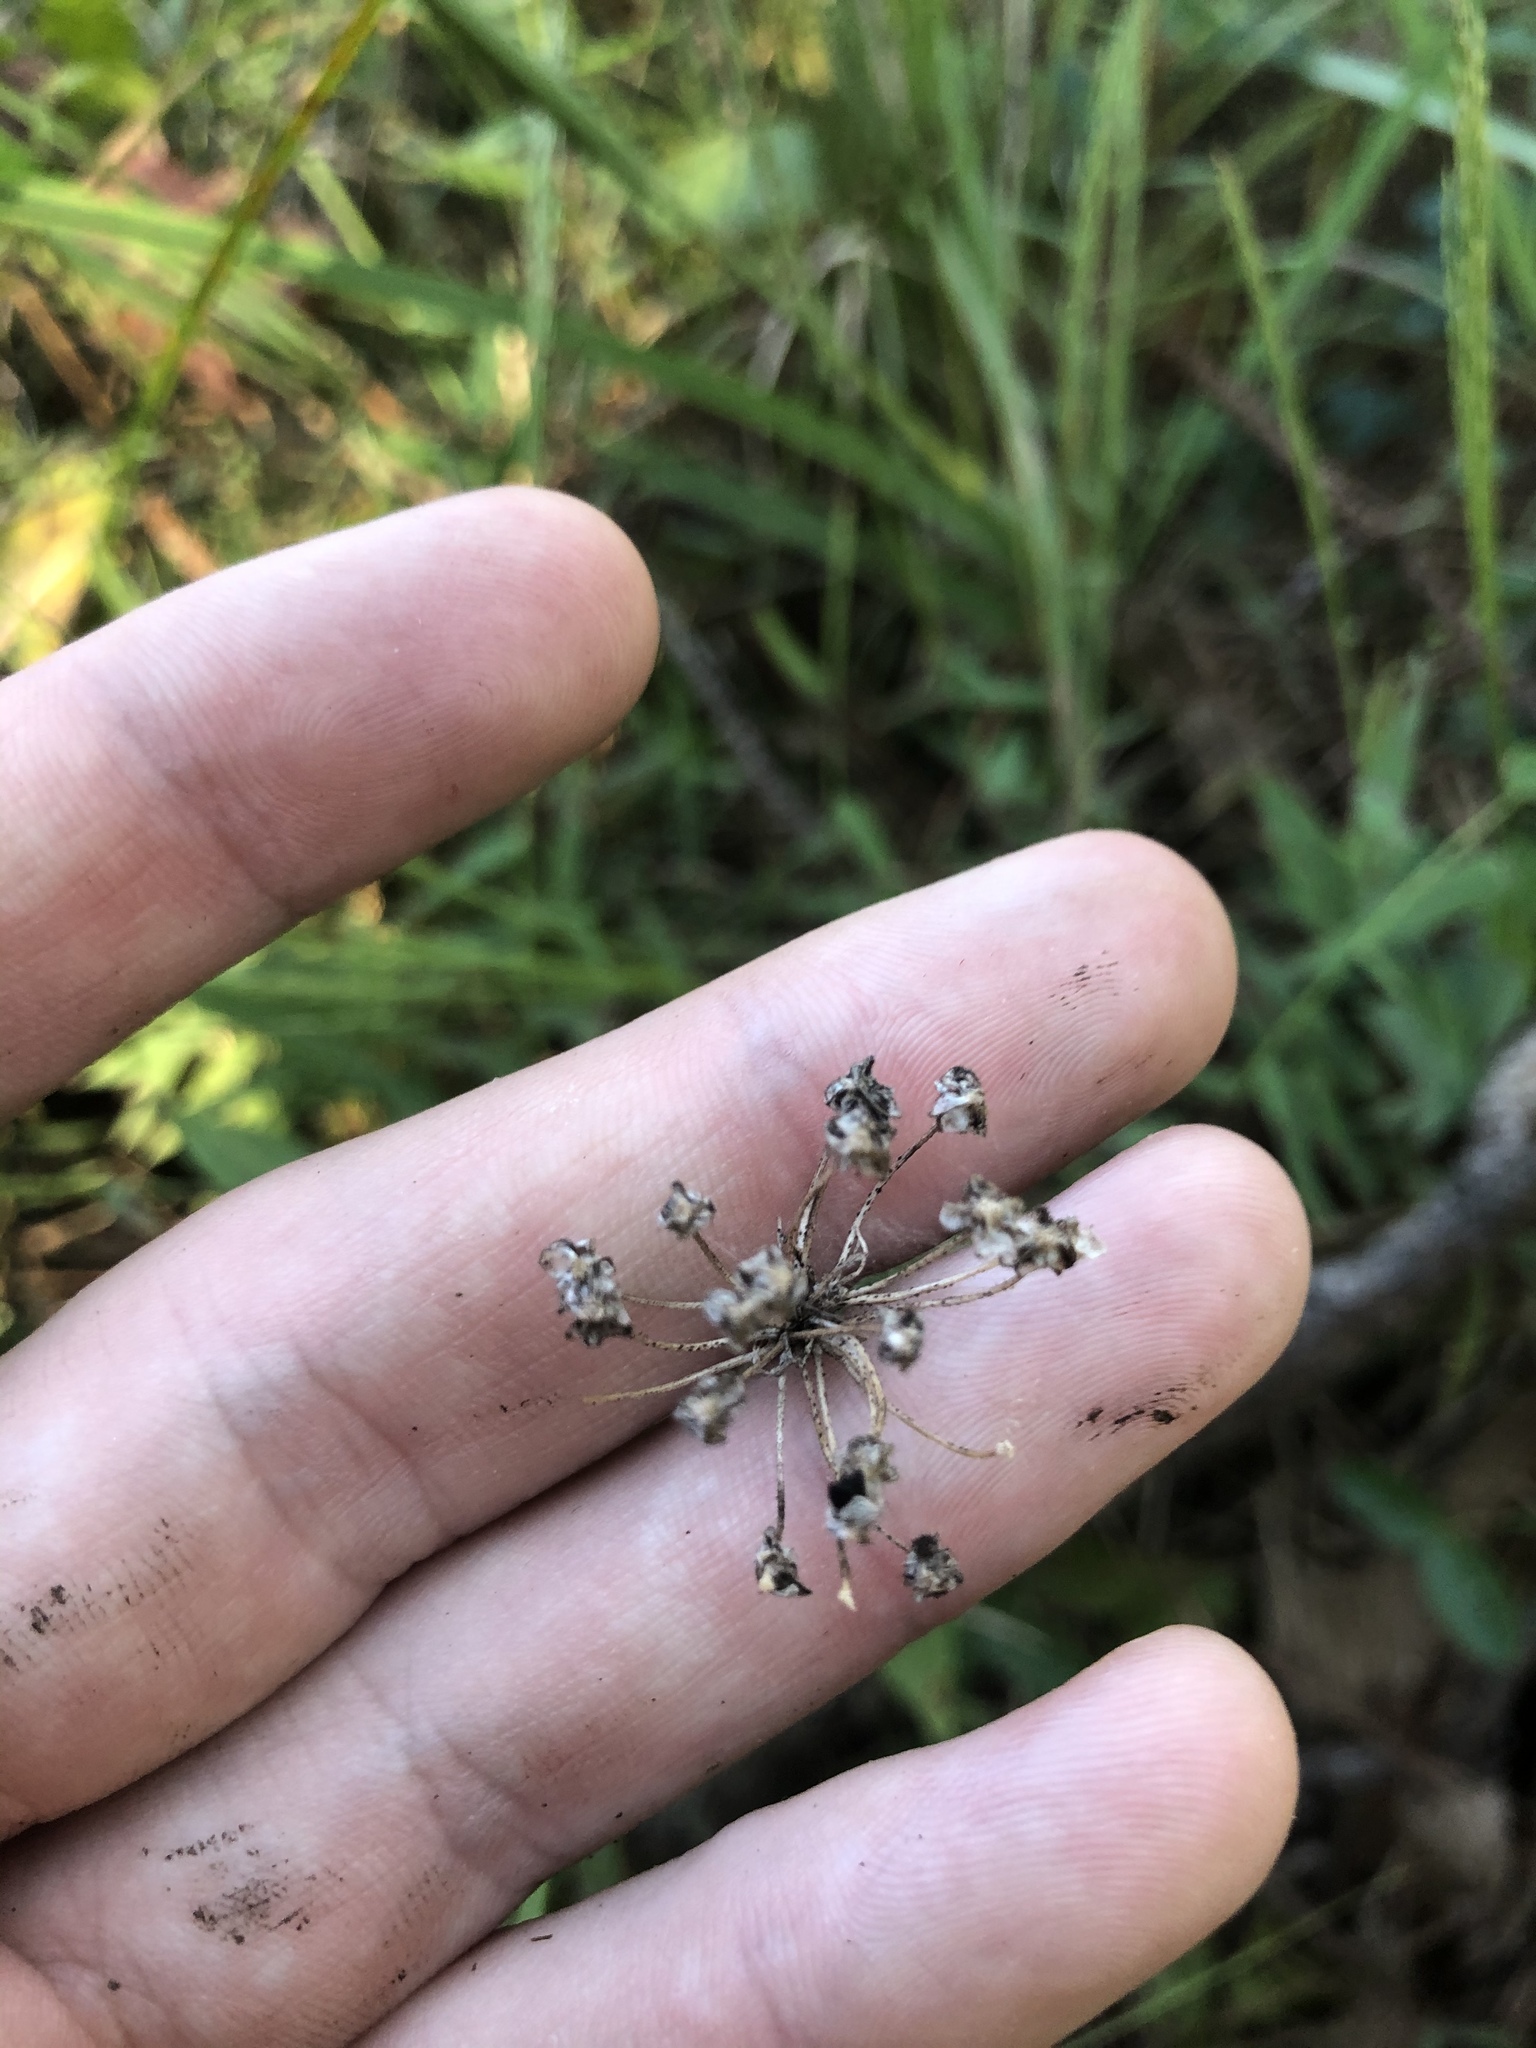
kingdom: Plantae
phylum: Tracheophyta
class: Liliopsida
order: Asparagales
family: Amaryllidaceae
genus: Allium
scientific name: Allium canadense
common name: Meadow garlic
